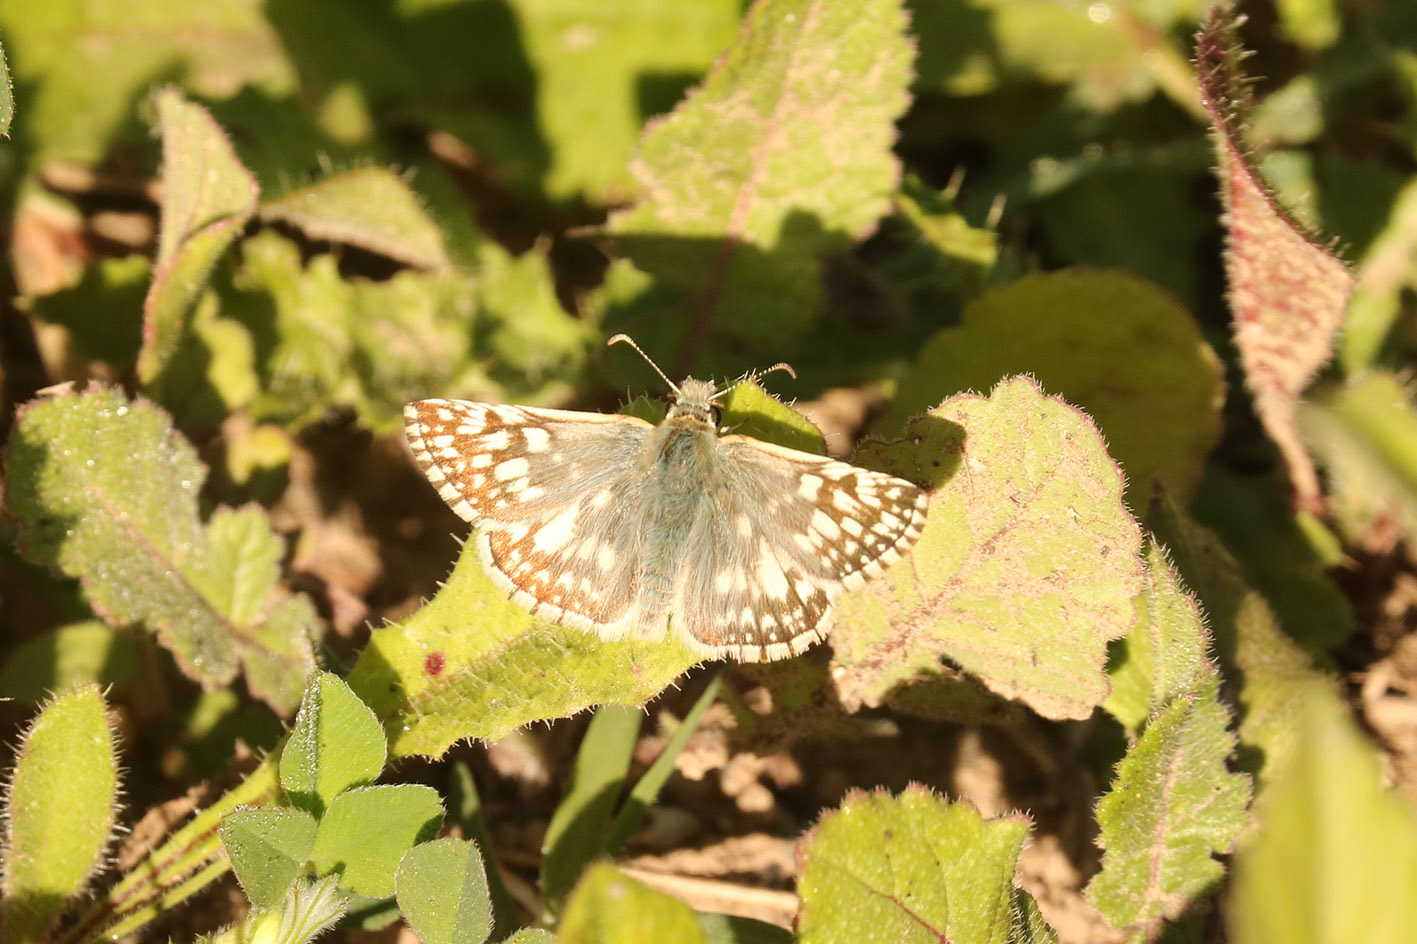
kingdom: Animalia
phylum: Arthropoda
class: Insecta
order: Lepidoptera
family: Hesperiidae
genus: Heliopetes
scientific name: Heliopetes americanus
